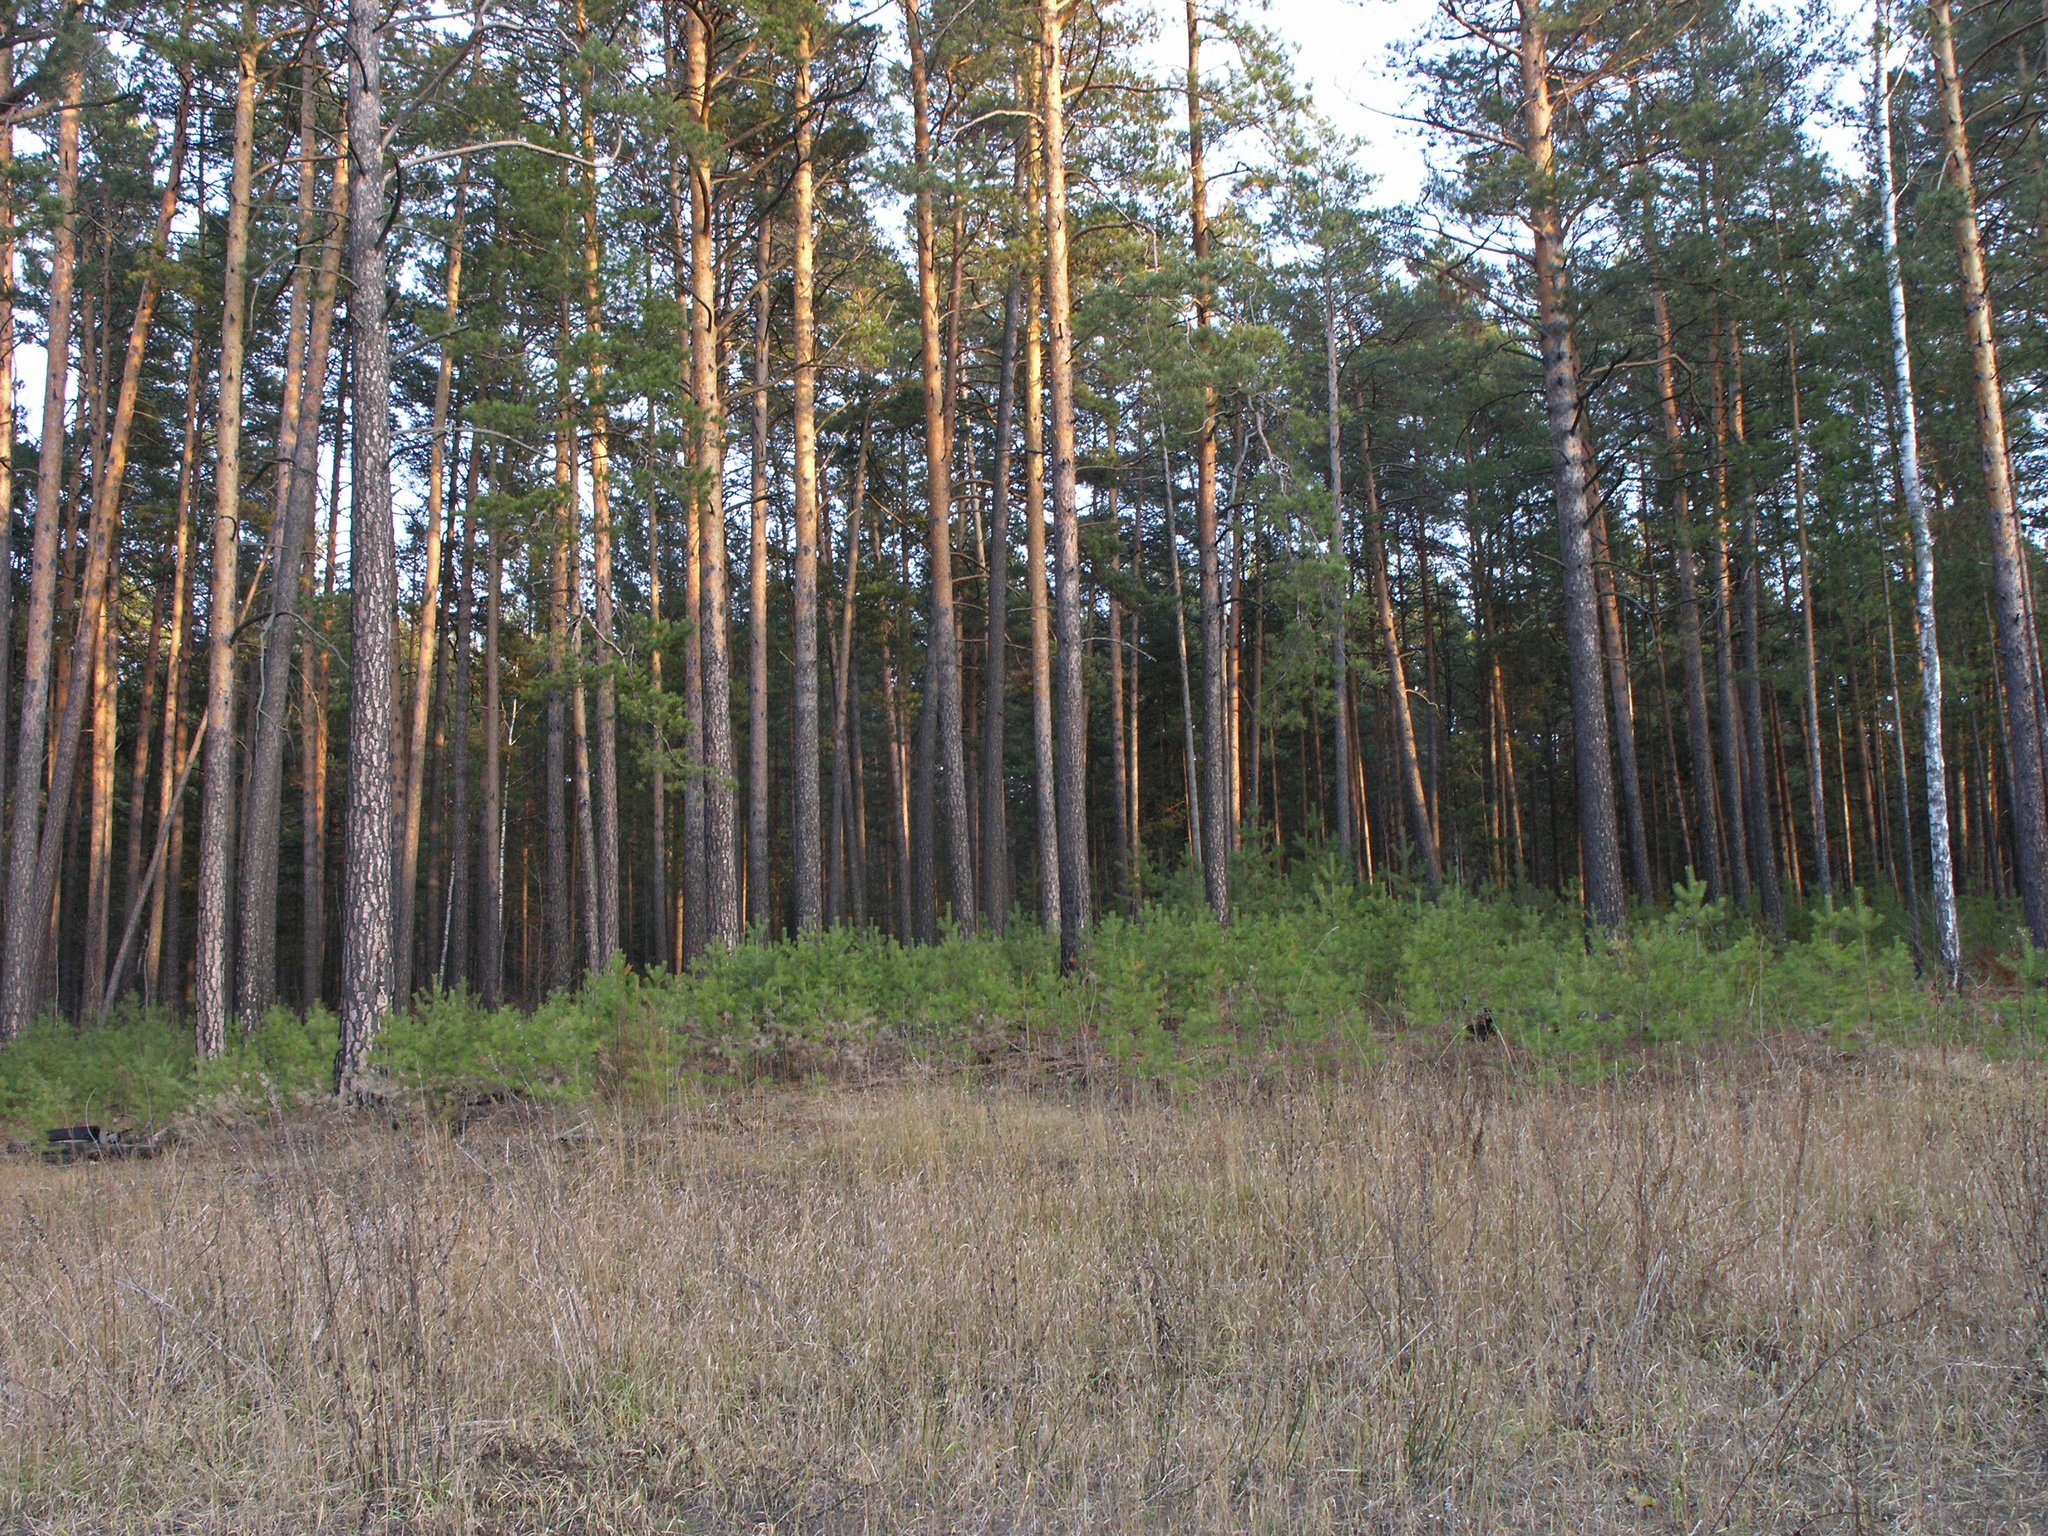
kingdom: Plantae
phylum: Tracheophyta
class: Pinopsida
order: Pinales
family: Pinaceae
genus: Pinus
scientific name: Pinus sylvestris
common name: Scots pine
